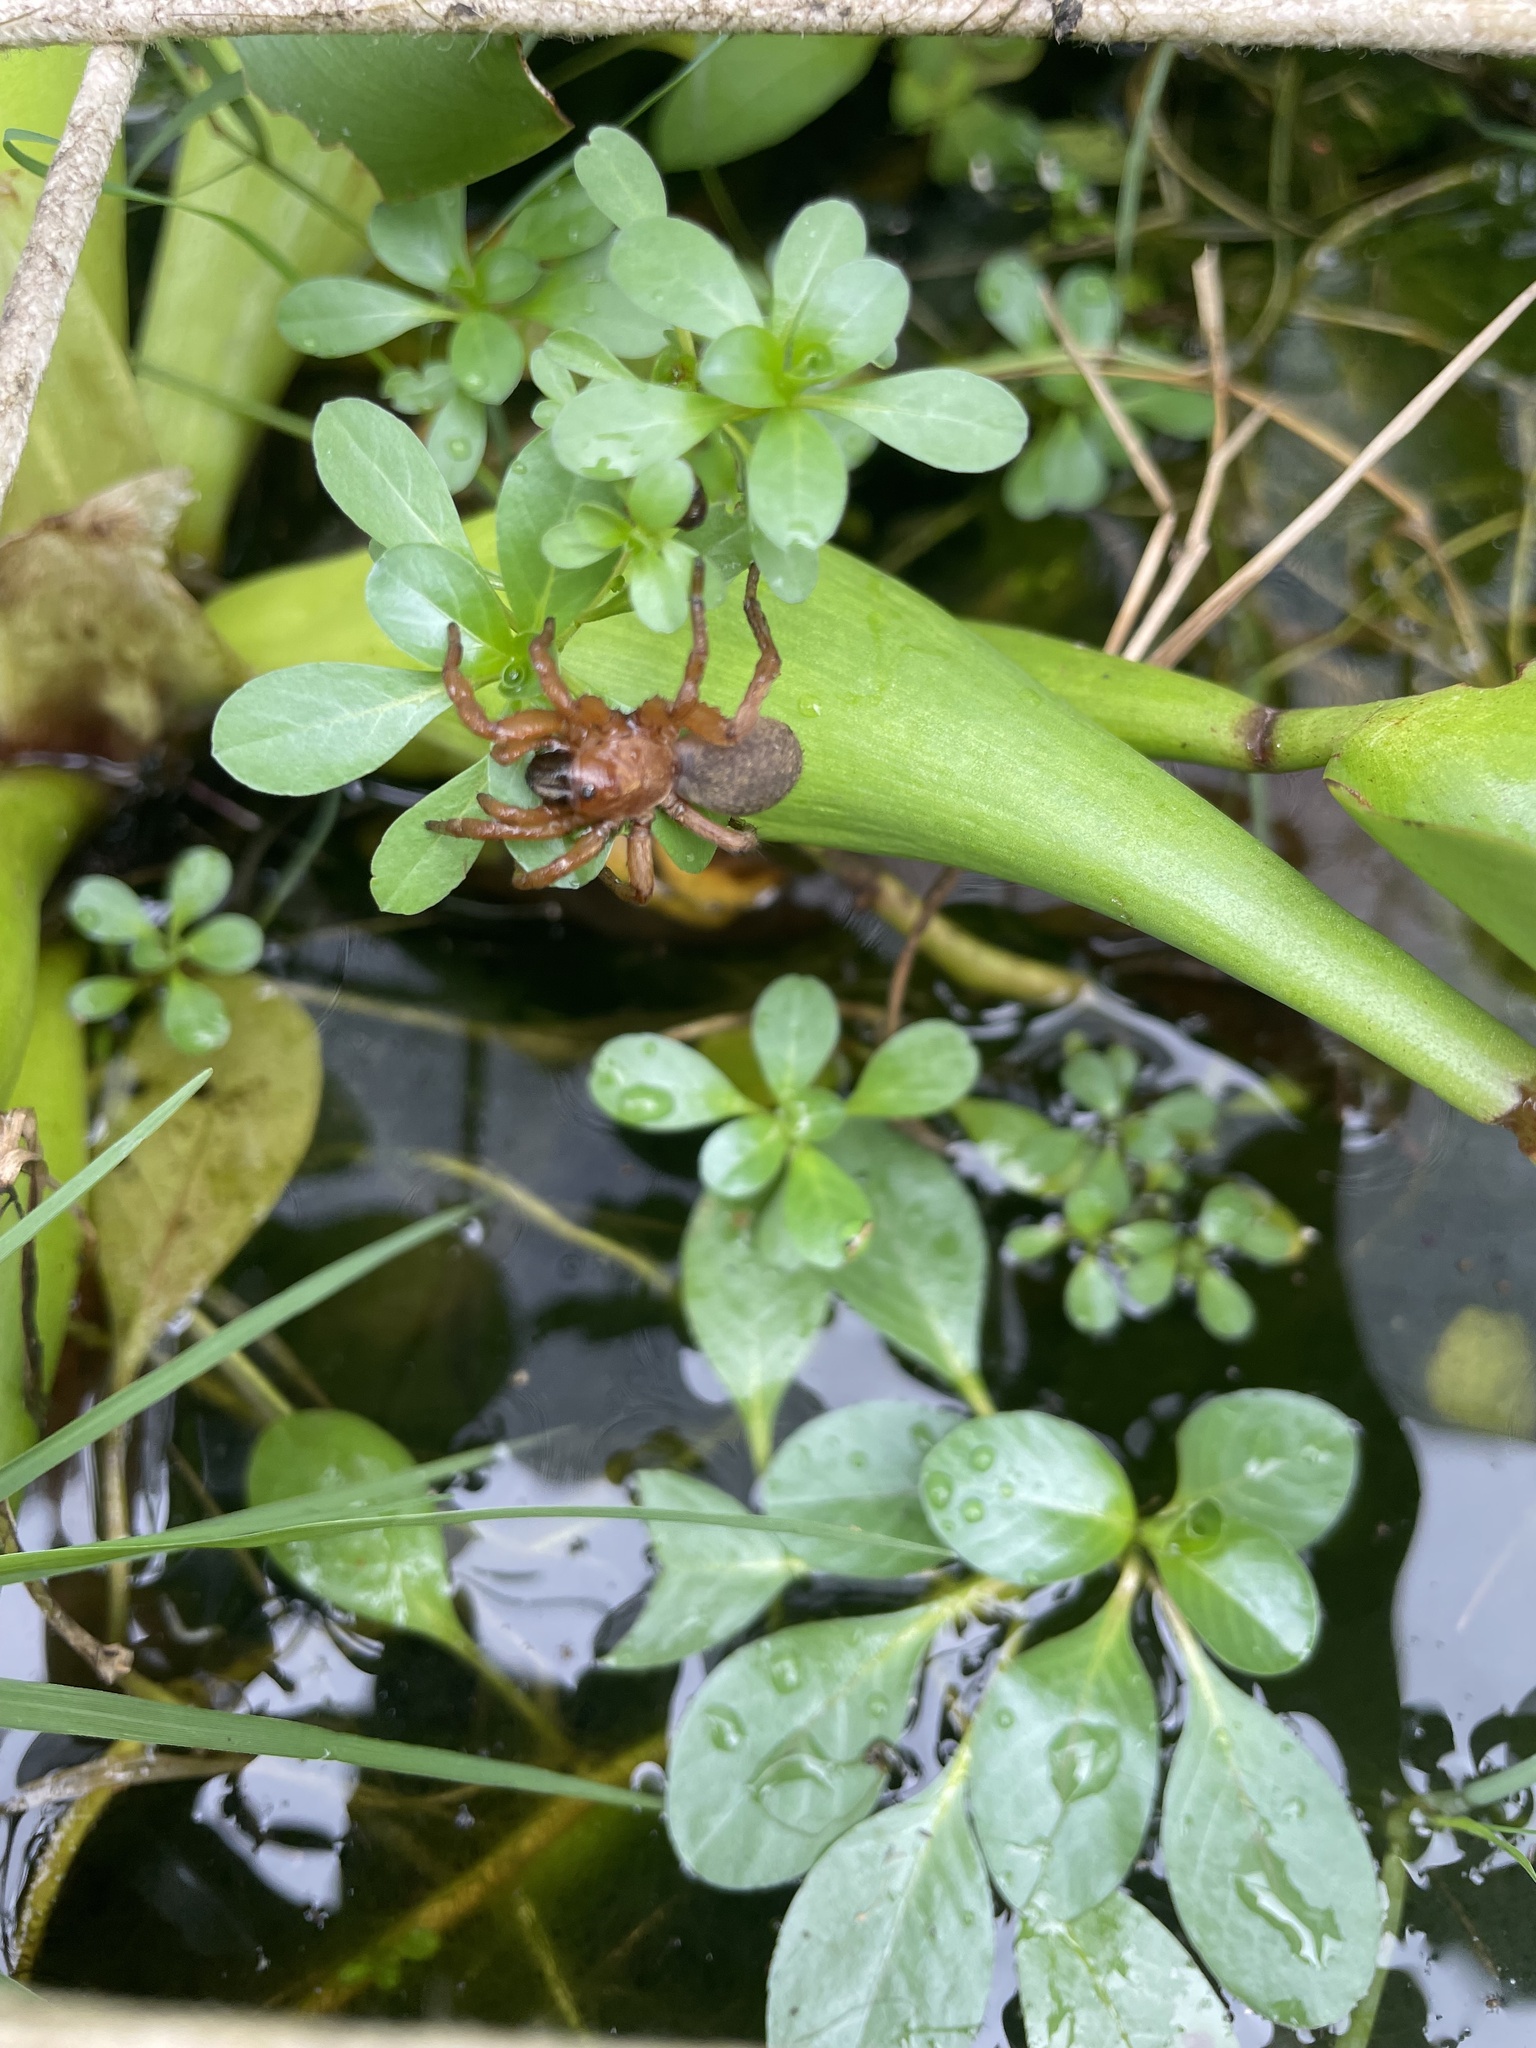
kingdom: Animalia
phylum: Arthropoda
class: Arachnida
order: Araneae
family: Pycnothelidae
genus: Acanthogonatus
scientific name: Acanthogonatus tacuariensis
